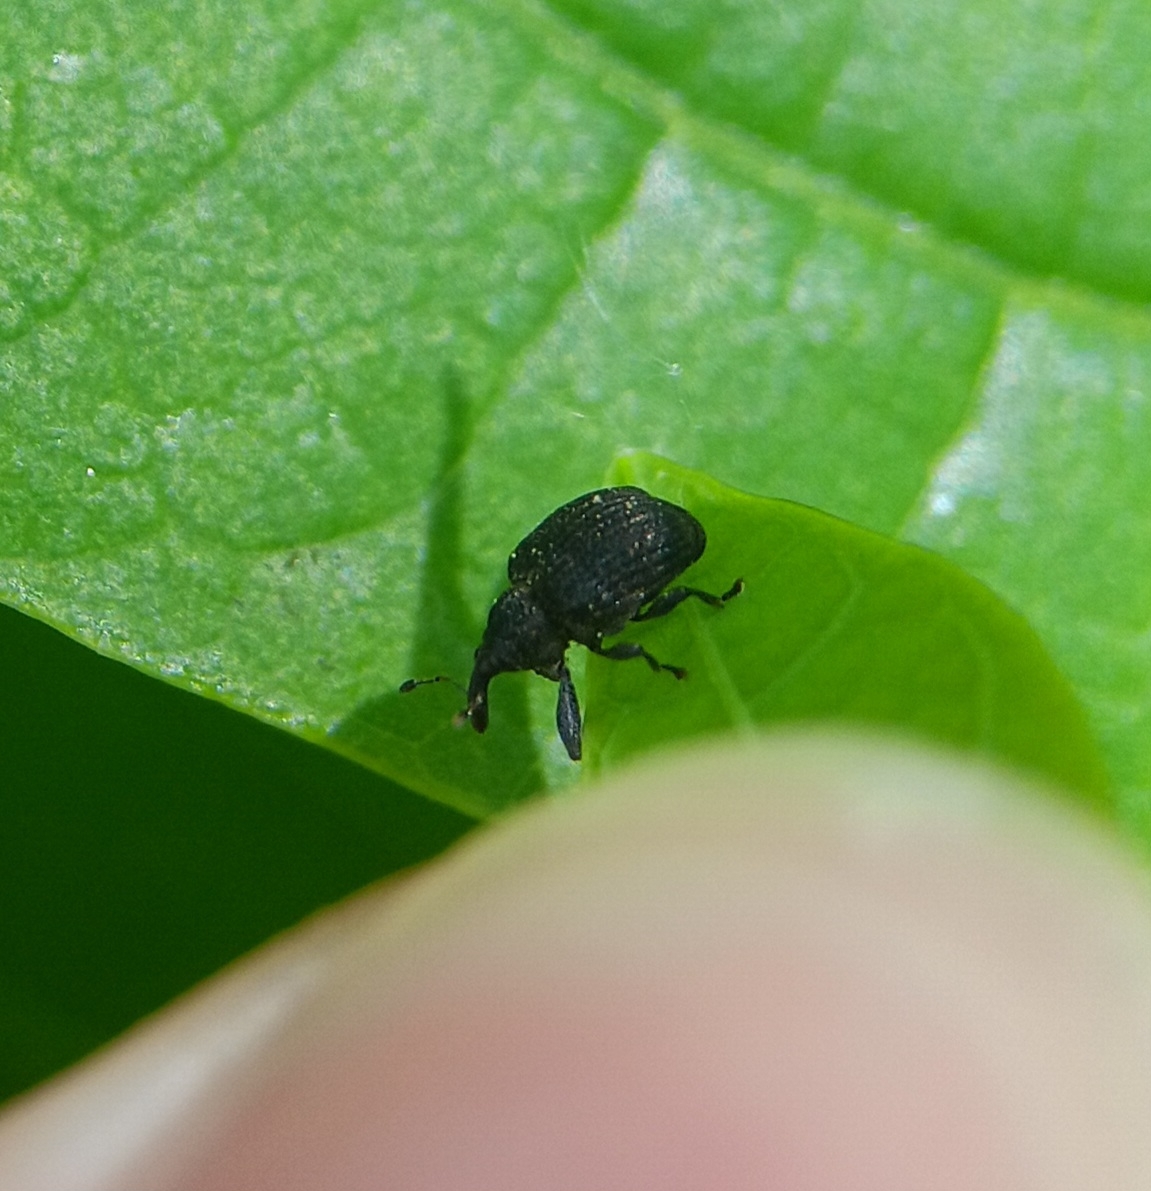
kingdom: Animalia
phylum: Arthropoda
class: Insecta
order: Coleoptera
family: Curculionidae
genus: Odontopus
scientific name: Odontopus calceatus
